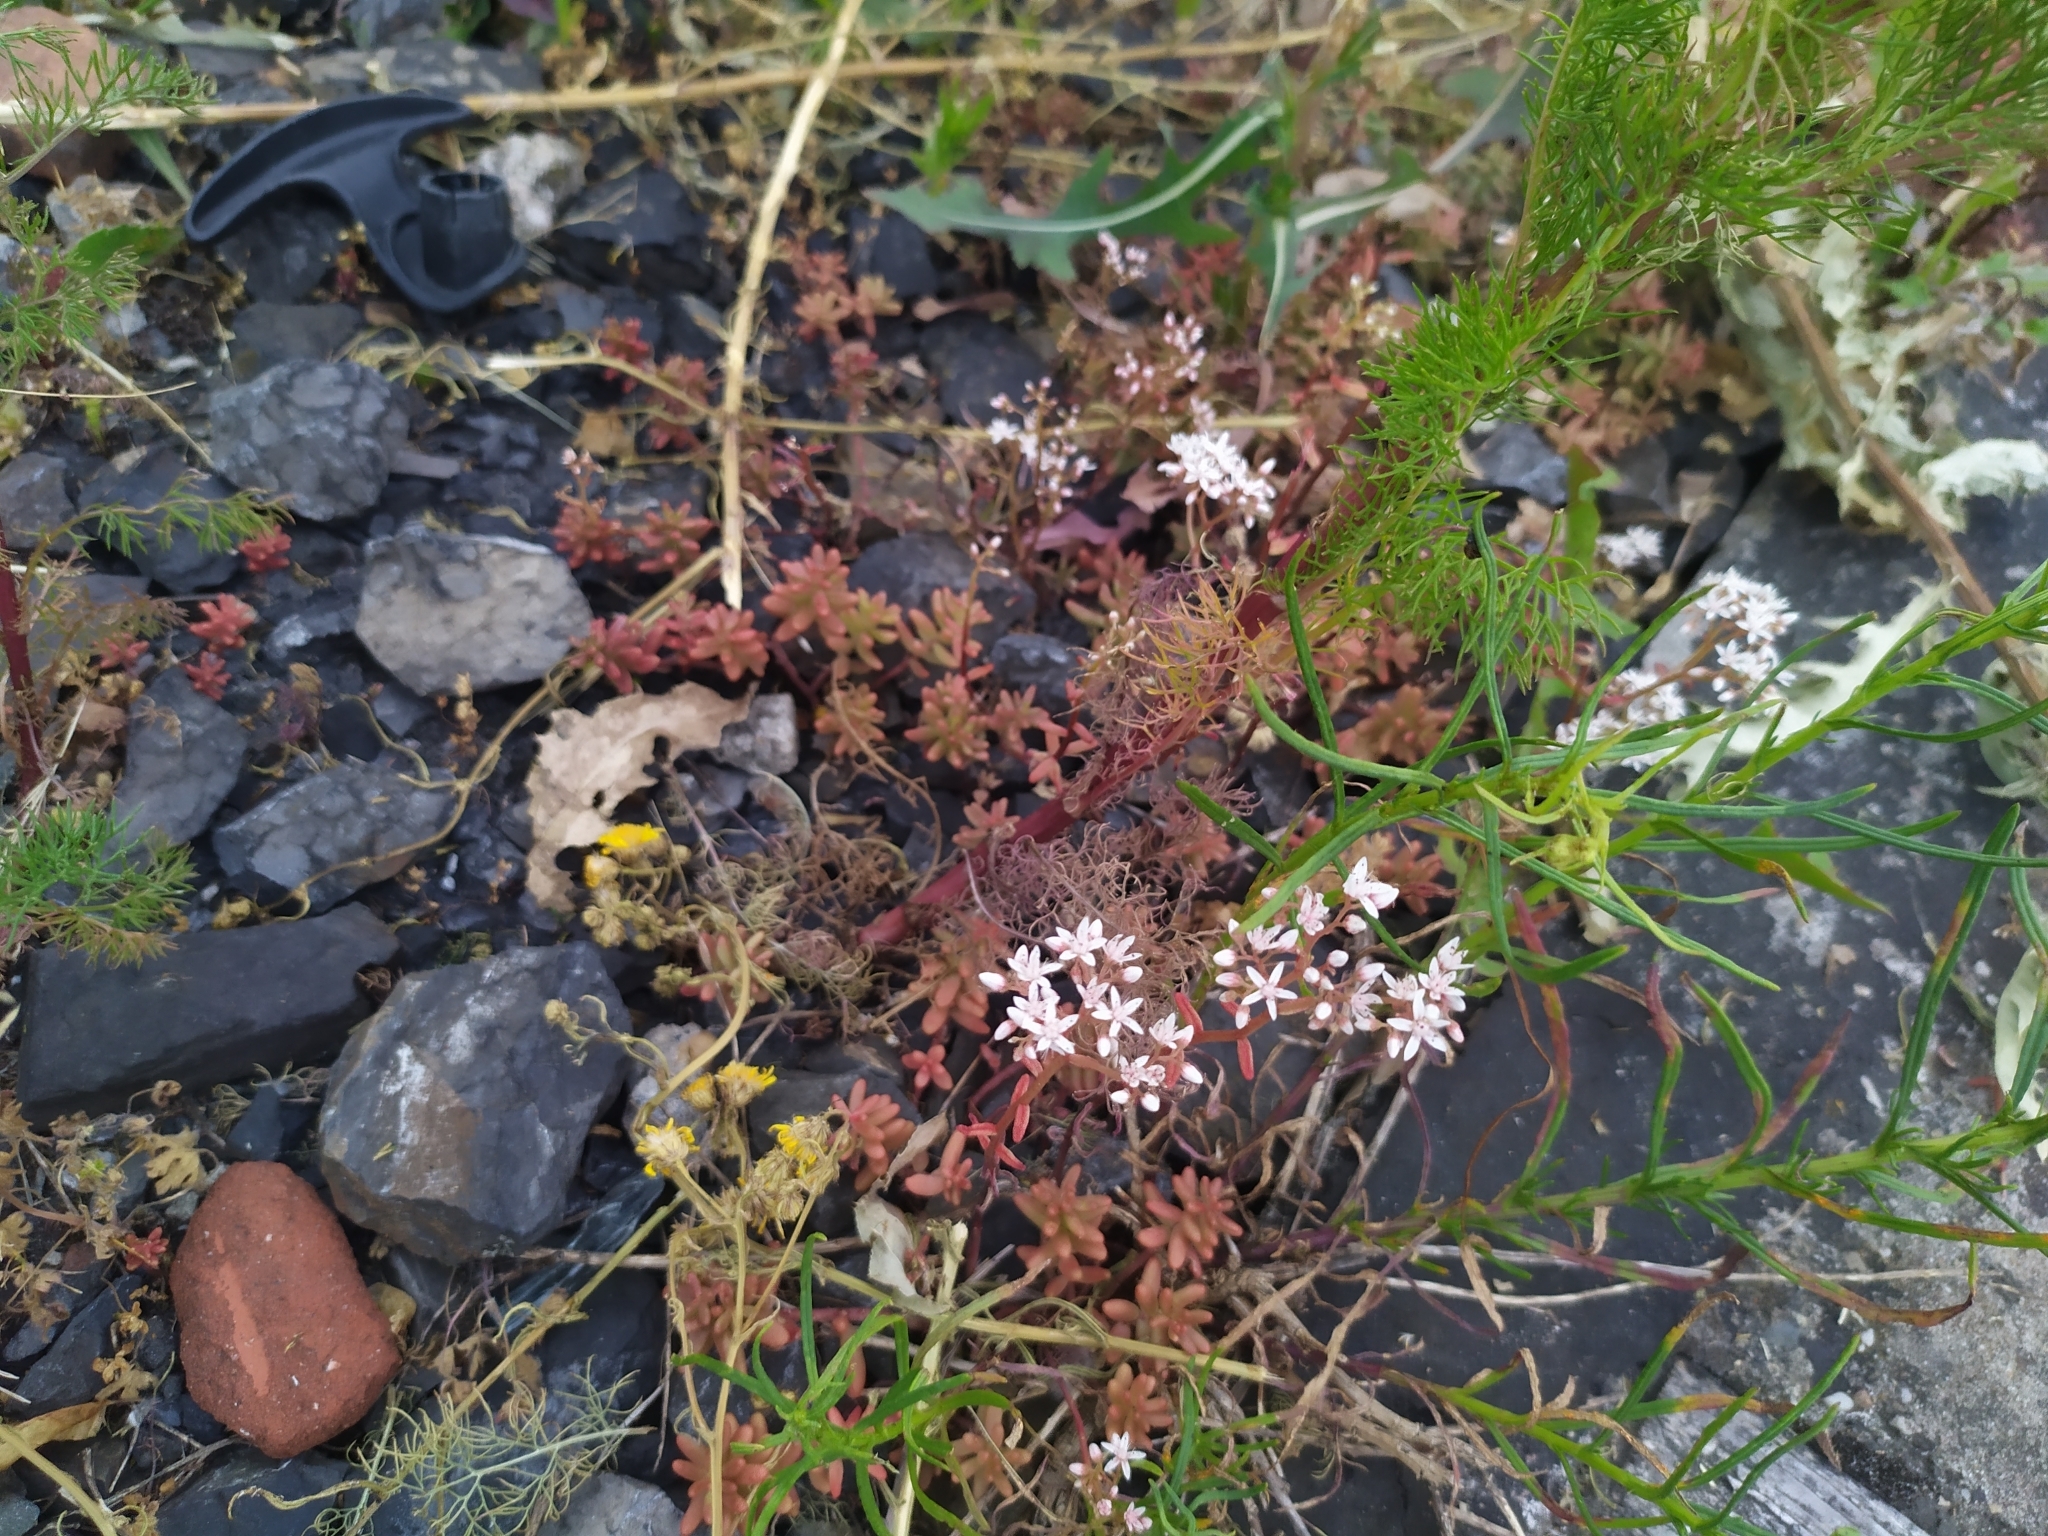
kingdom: Plantae
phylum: Tracheophyta
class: Magnoliopsida
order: Saxifragales
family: Crassulaceae
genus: Sedum
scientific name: Sedum album
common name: White stonecrop
